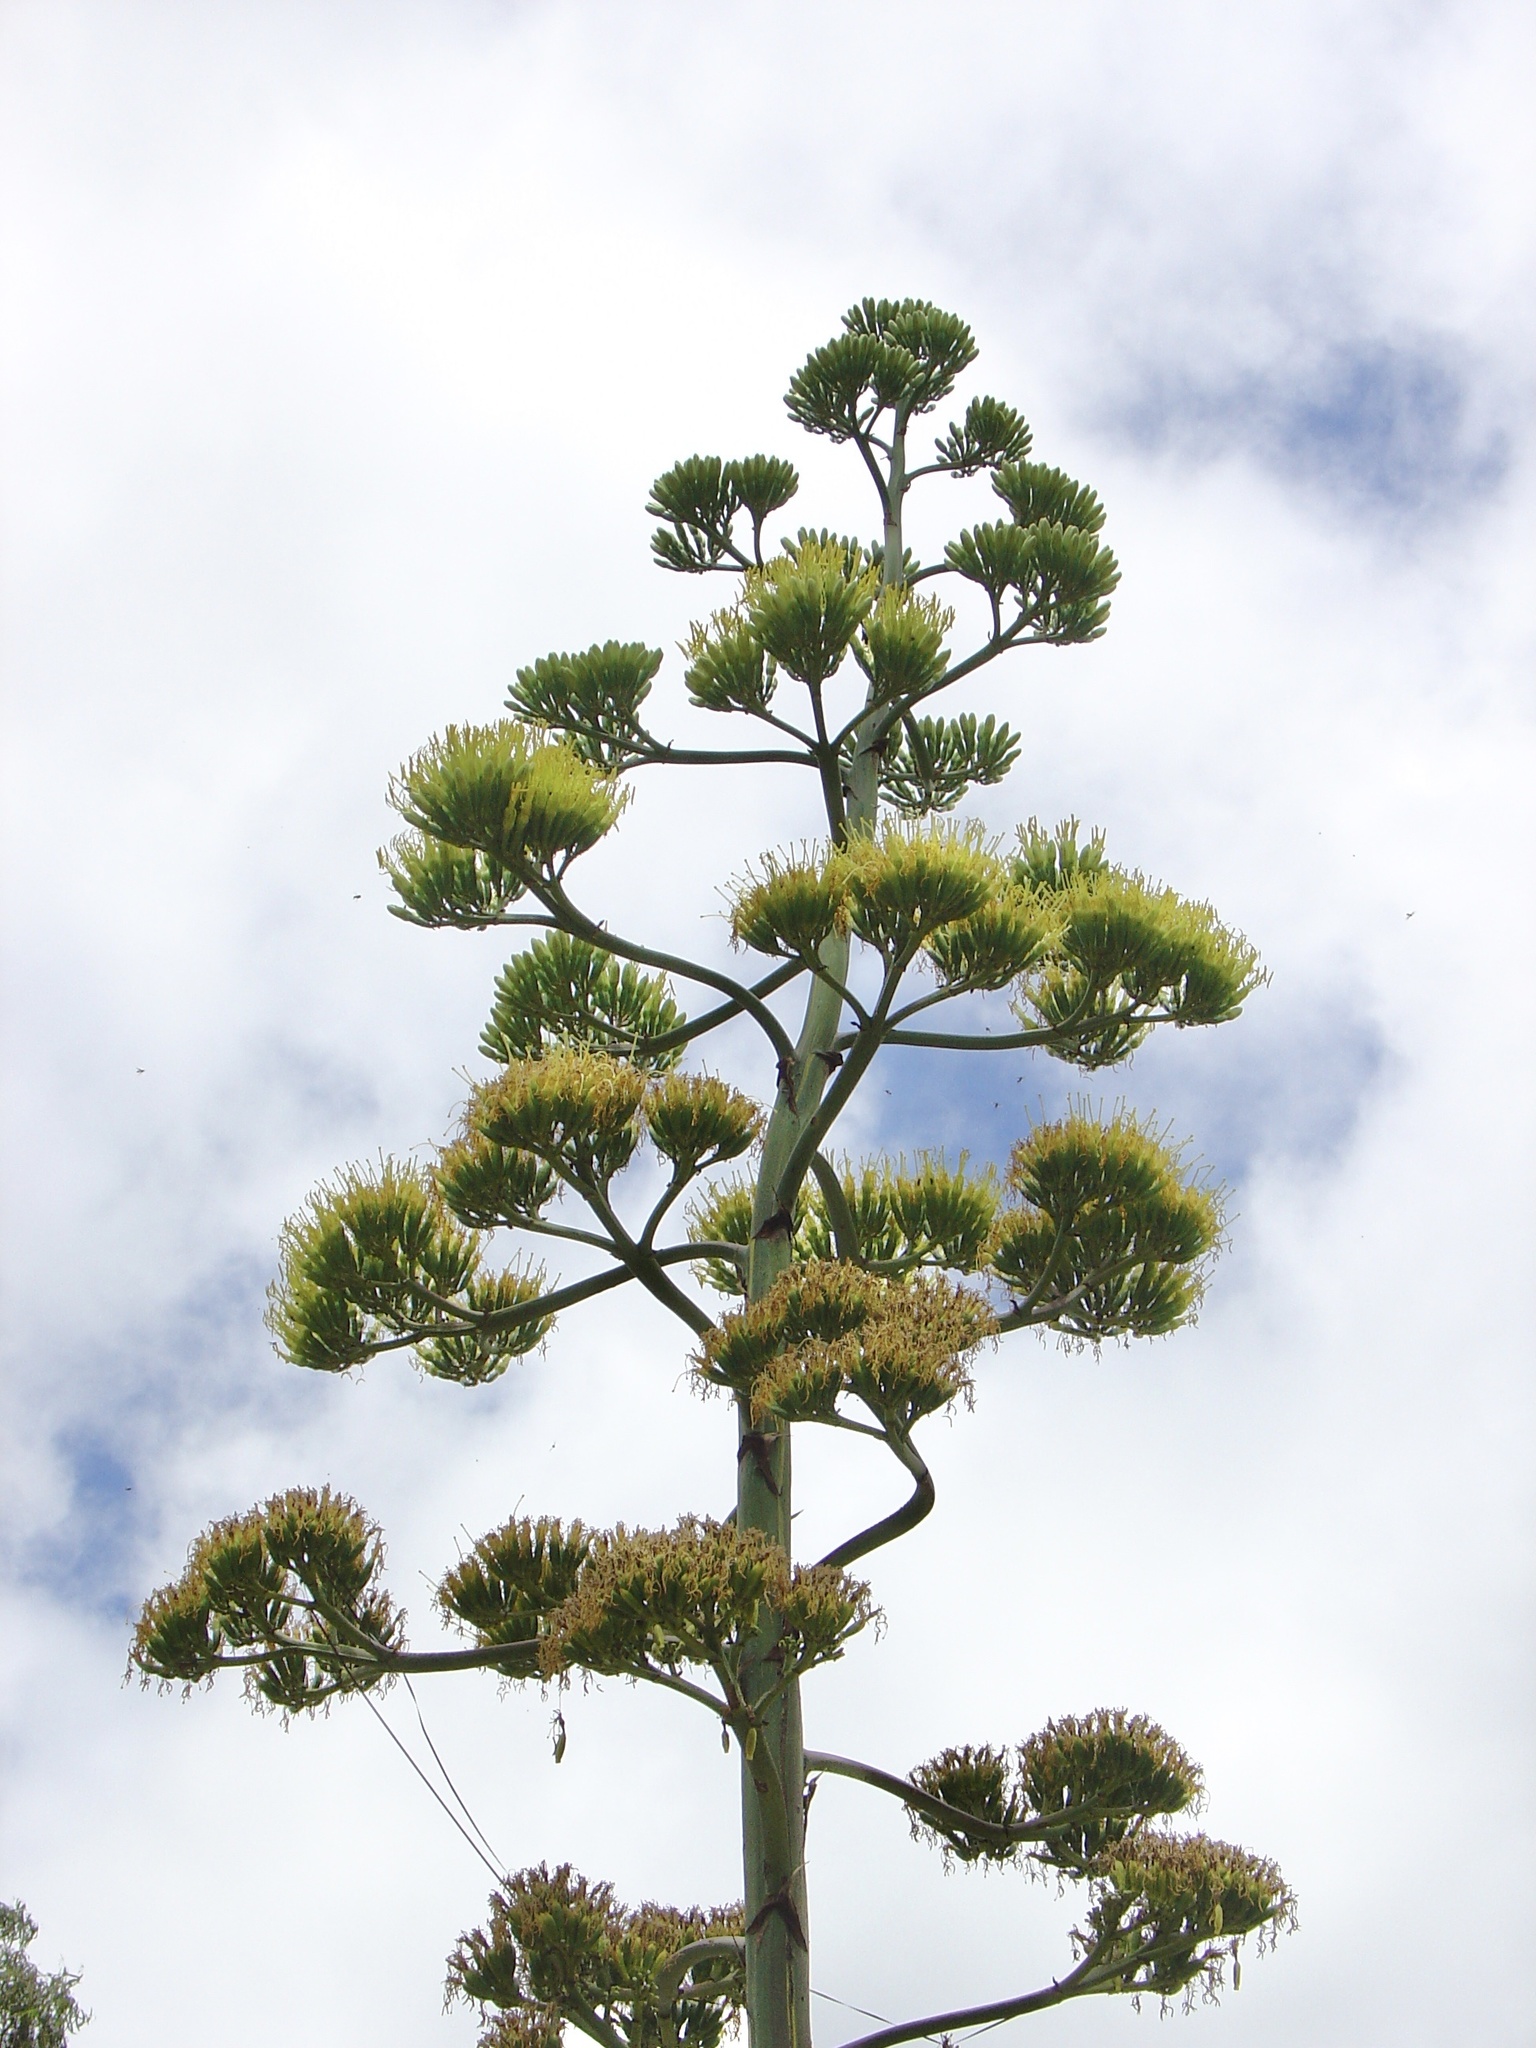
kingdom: Plantae
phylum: Tracheophyta
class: Liliopsida
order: Asparagales
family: Asparagaceae
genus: Agave
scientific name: Agave americana
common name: Centuryplant
